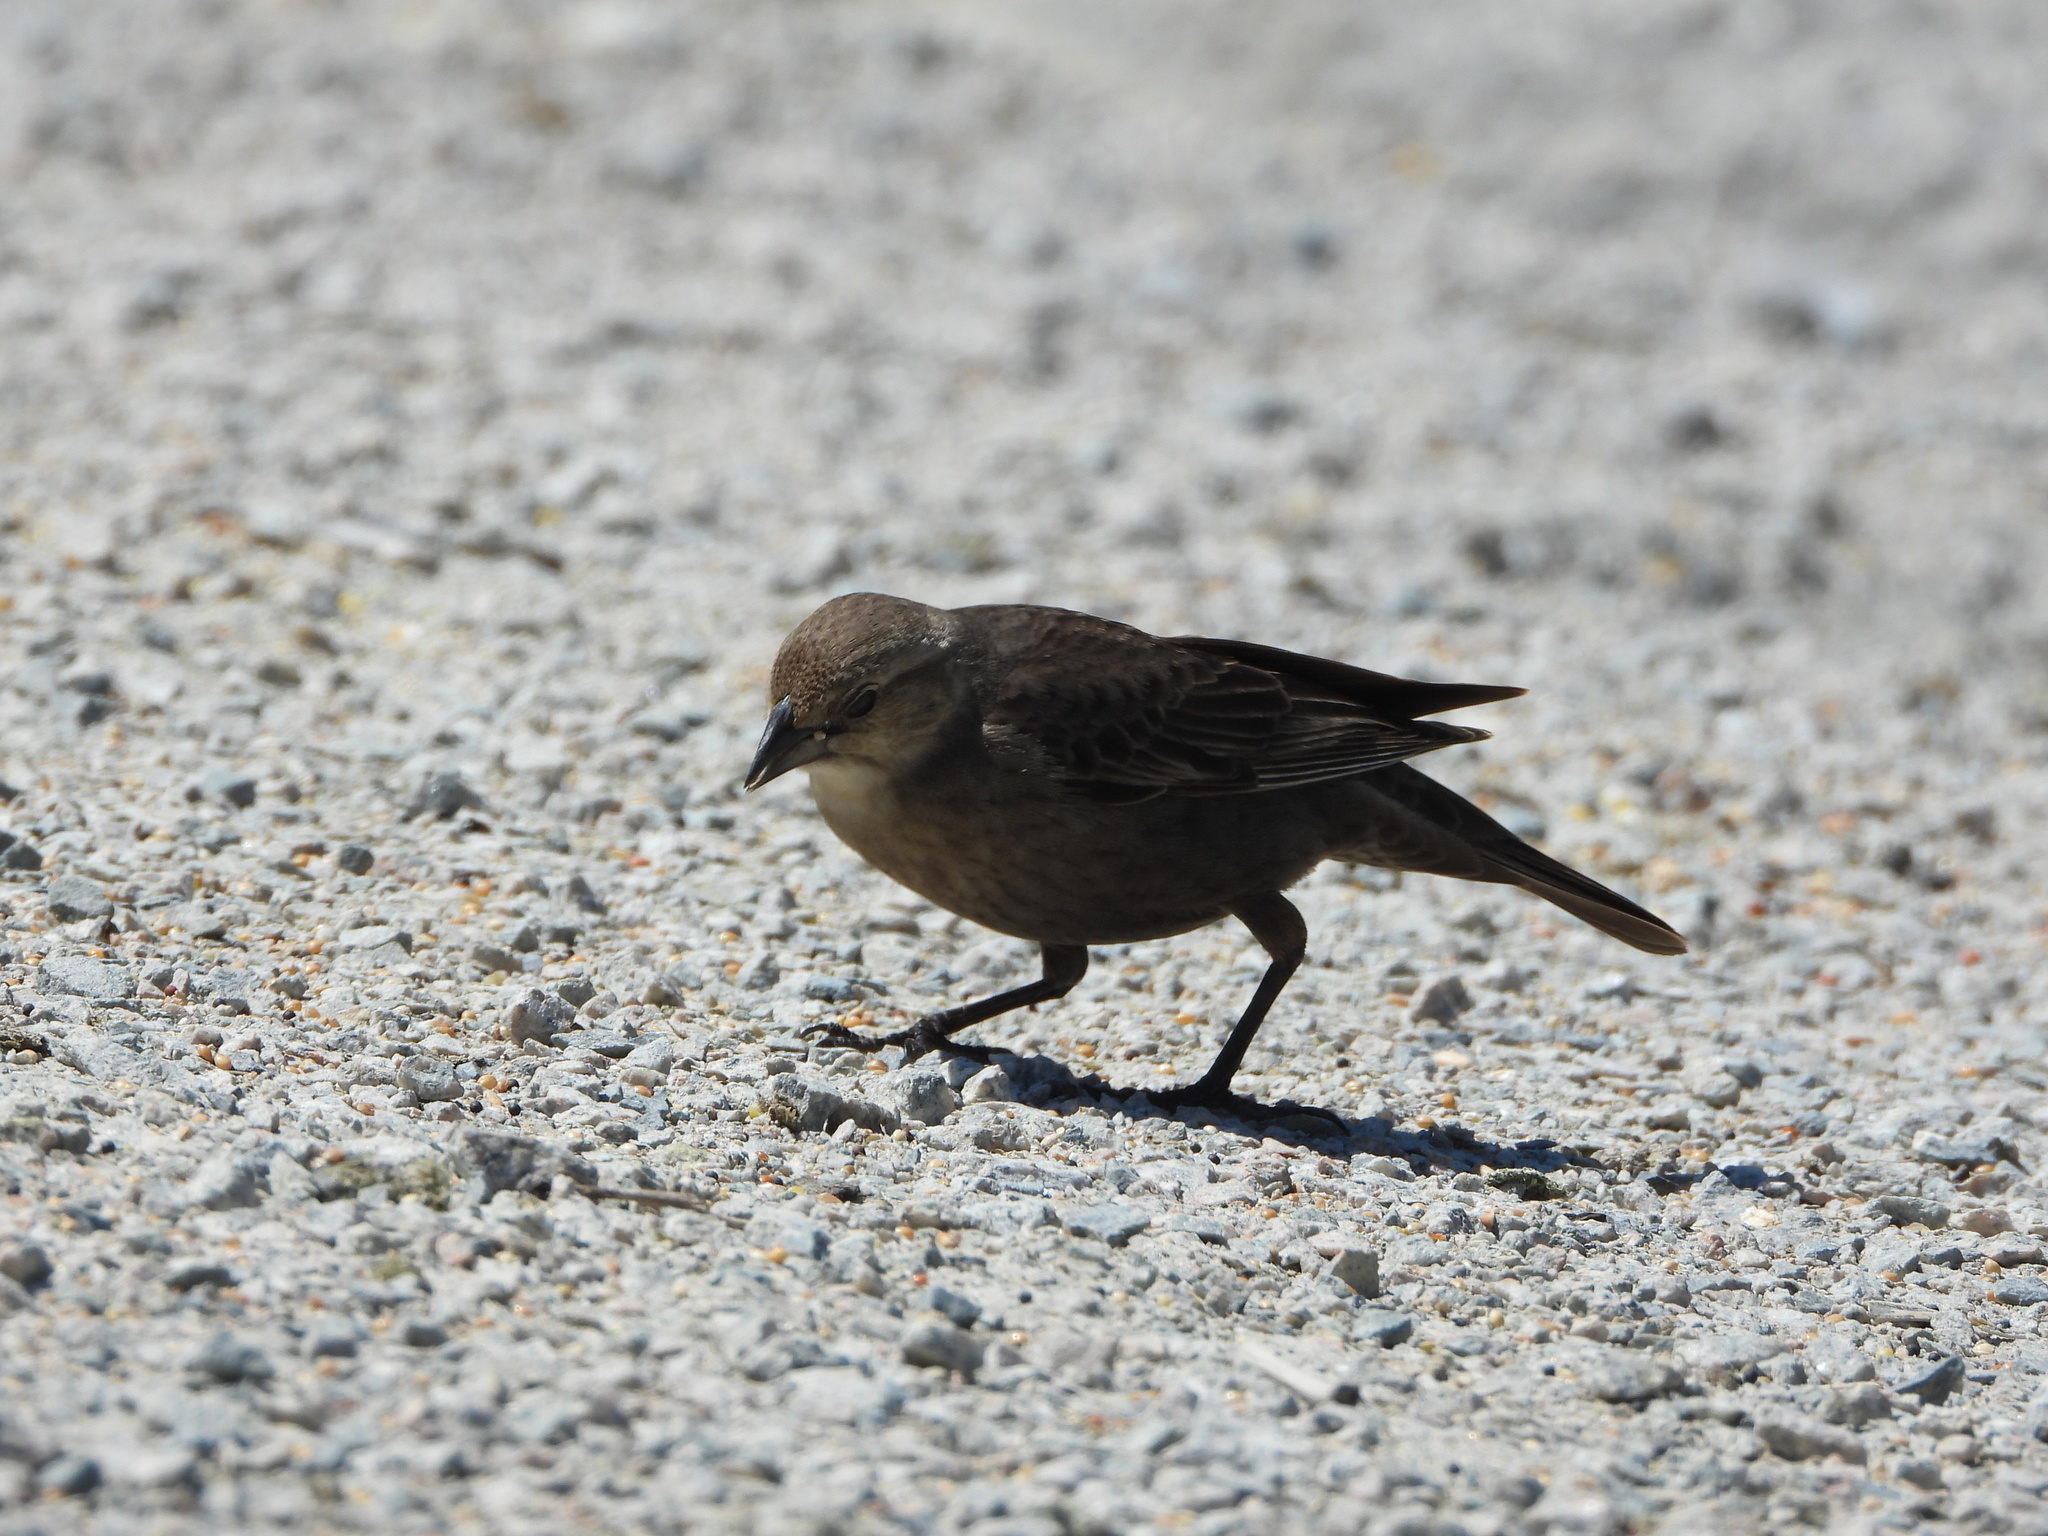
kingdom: Animalia
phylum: Chordata
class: Aves
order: Passeriformes
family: Icteridae
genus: Molothrus
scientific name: Molothrus ater
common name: Brown-headed cowbird
